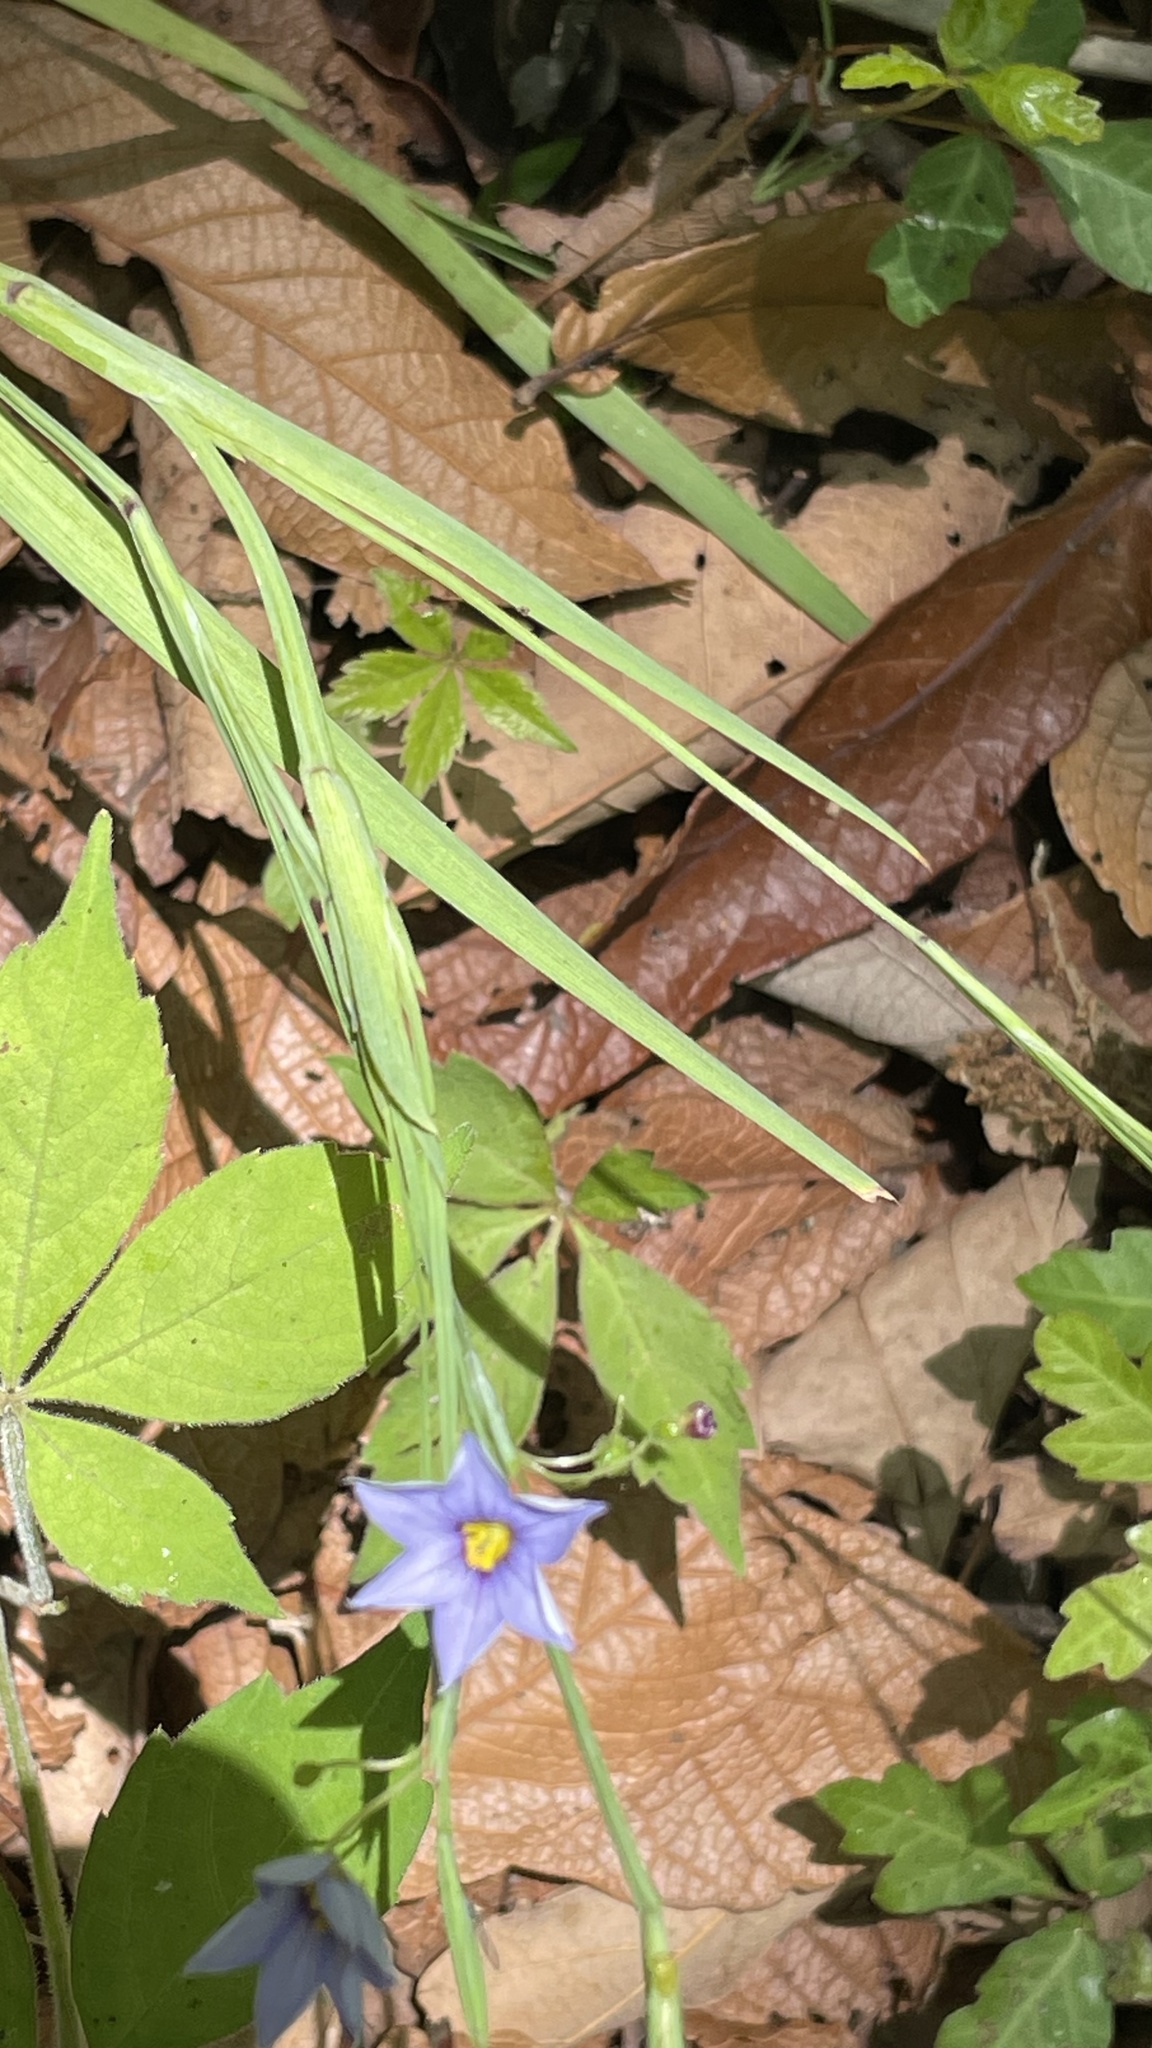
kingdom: Plantae
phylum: Tracheophyta
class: Liliopsida
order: Asparagales
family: Iridaceae
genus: Sisyrinchium
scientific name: Sisyrinchium angustifolium
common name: Narrow-leaf blue-eyed-grass
